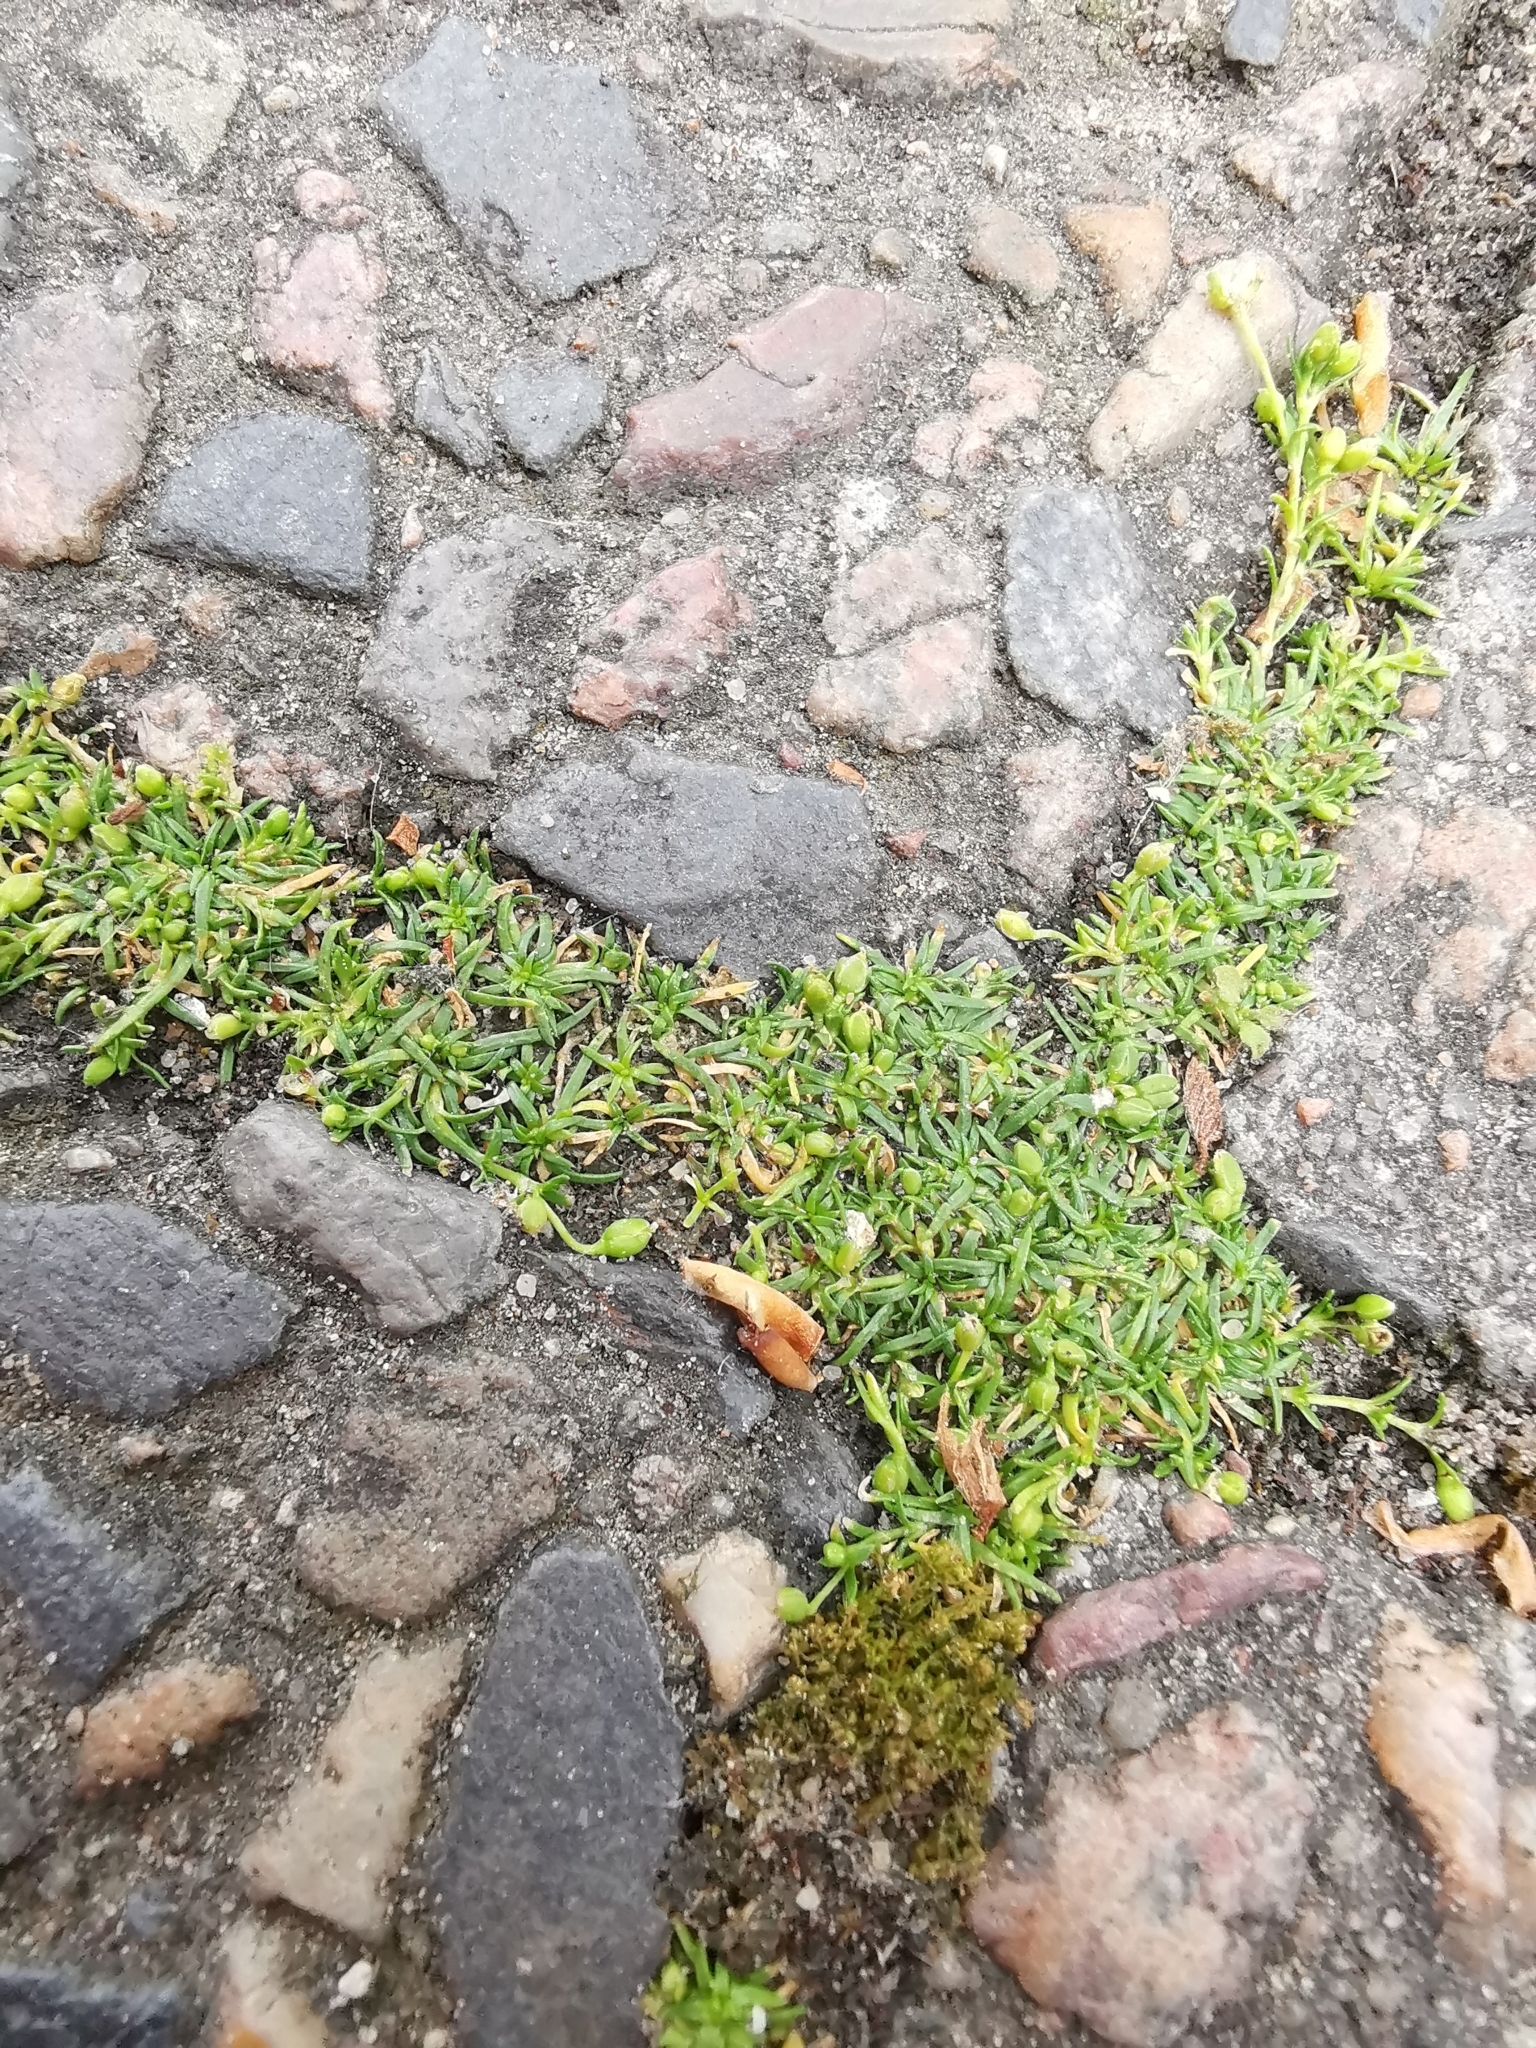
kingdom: Plantae
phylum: Tracheophyta
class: Magnoliopsida
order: Caryophyllales
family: Caryophyllaceae
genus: Sagina
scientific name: Sagina procumbens
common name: Procumbent pearlwort
